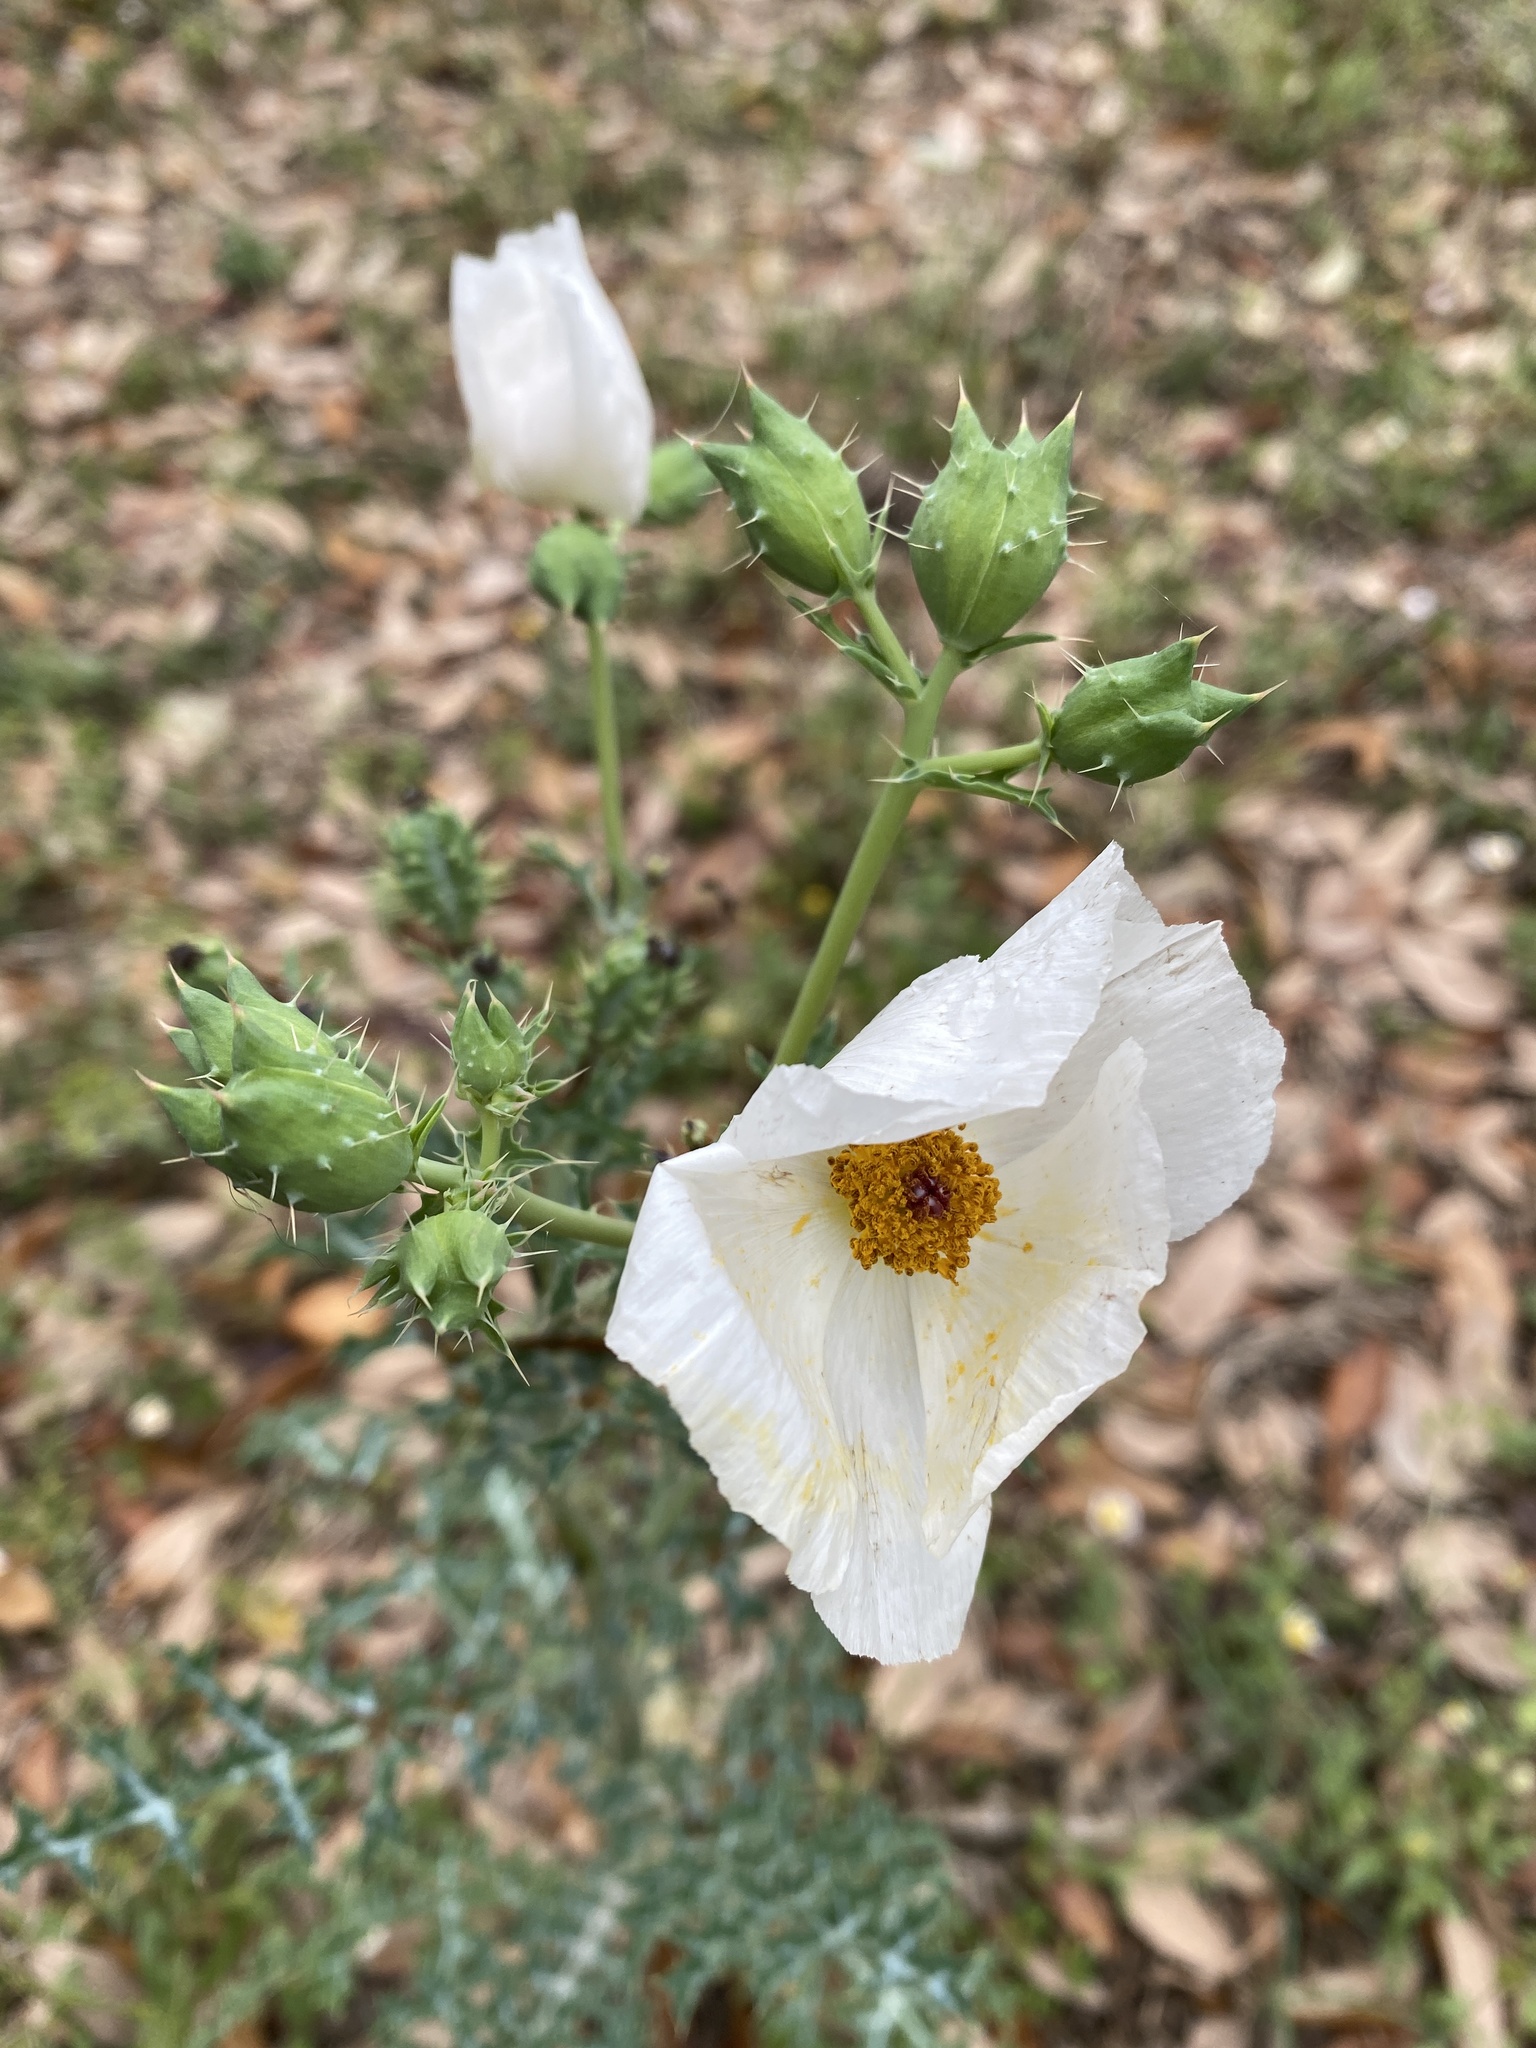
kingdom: Plantae
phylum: Tracheophyta
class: Magnoliopsida
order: Ranunculales
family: Papaveraceae
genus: Argemone
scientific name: Argemone albiflora
